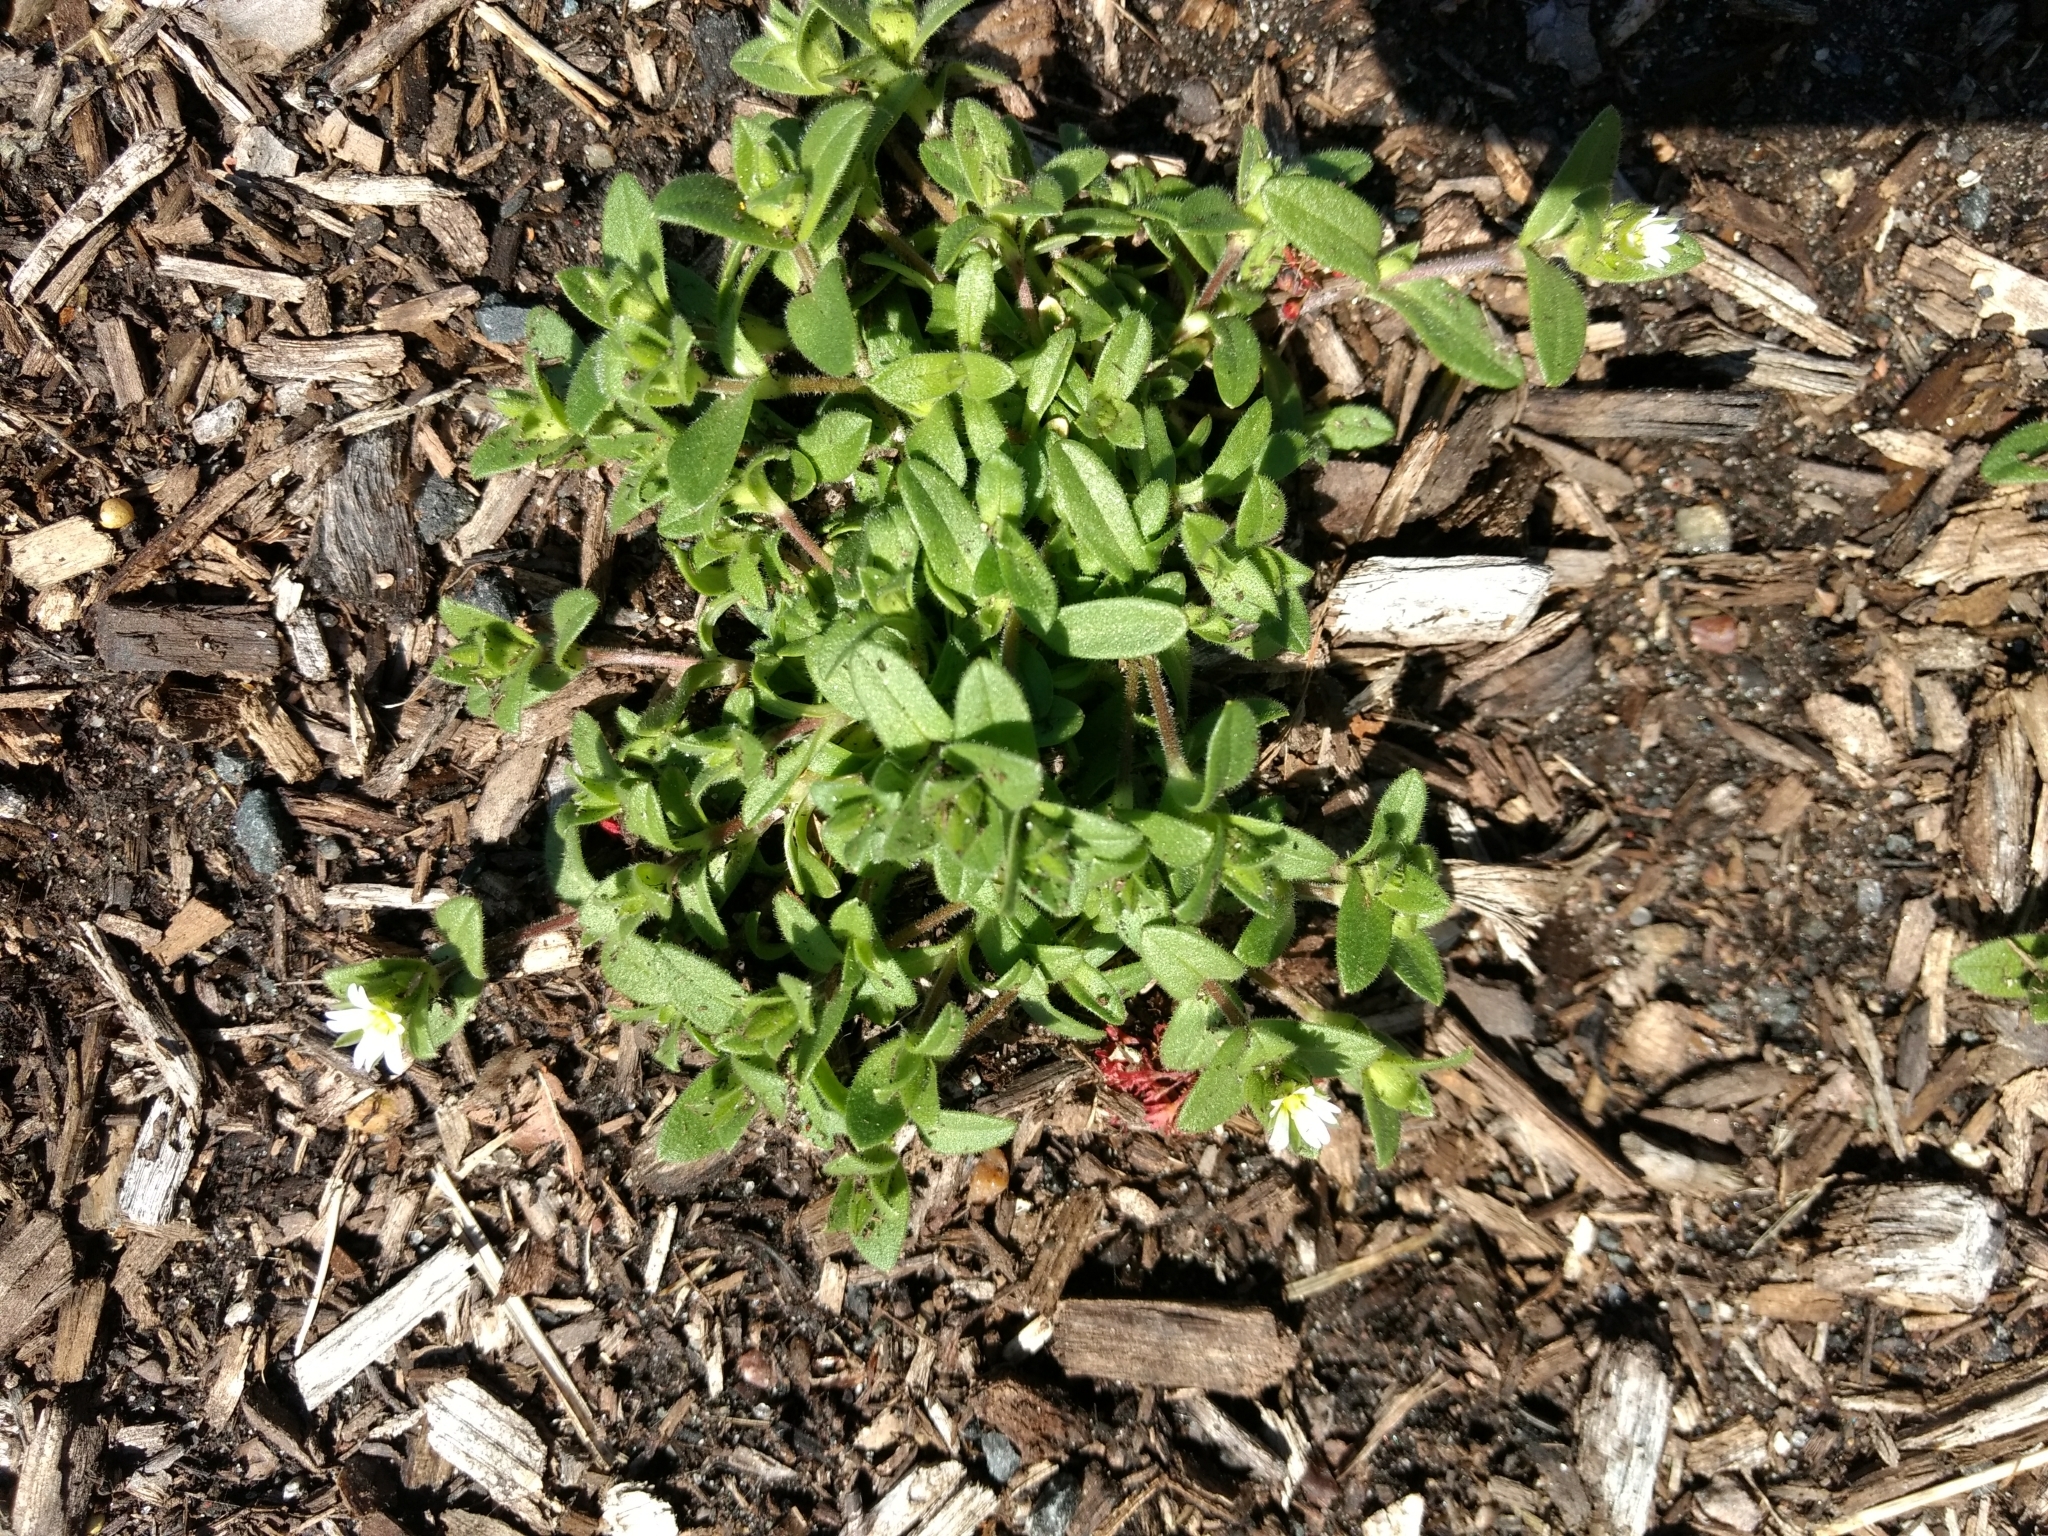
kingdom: Plantae
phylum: Tracheophyta
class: Magnoliopsida
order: Caryophyllales
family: Caryophyllaceae
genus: Cerastium
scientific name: Cerastium fontanum
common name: Common mouse-ear
